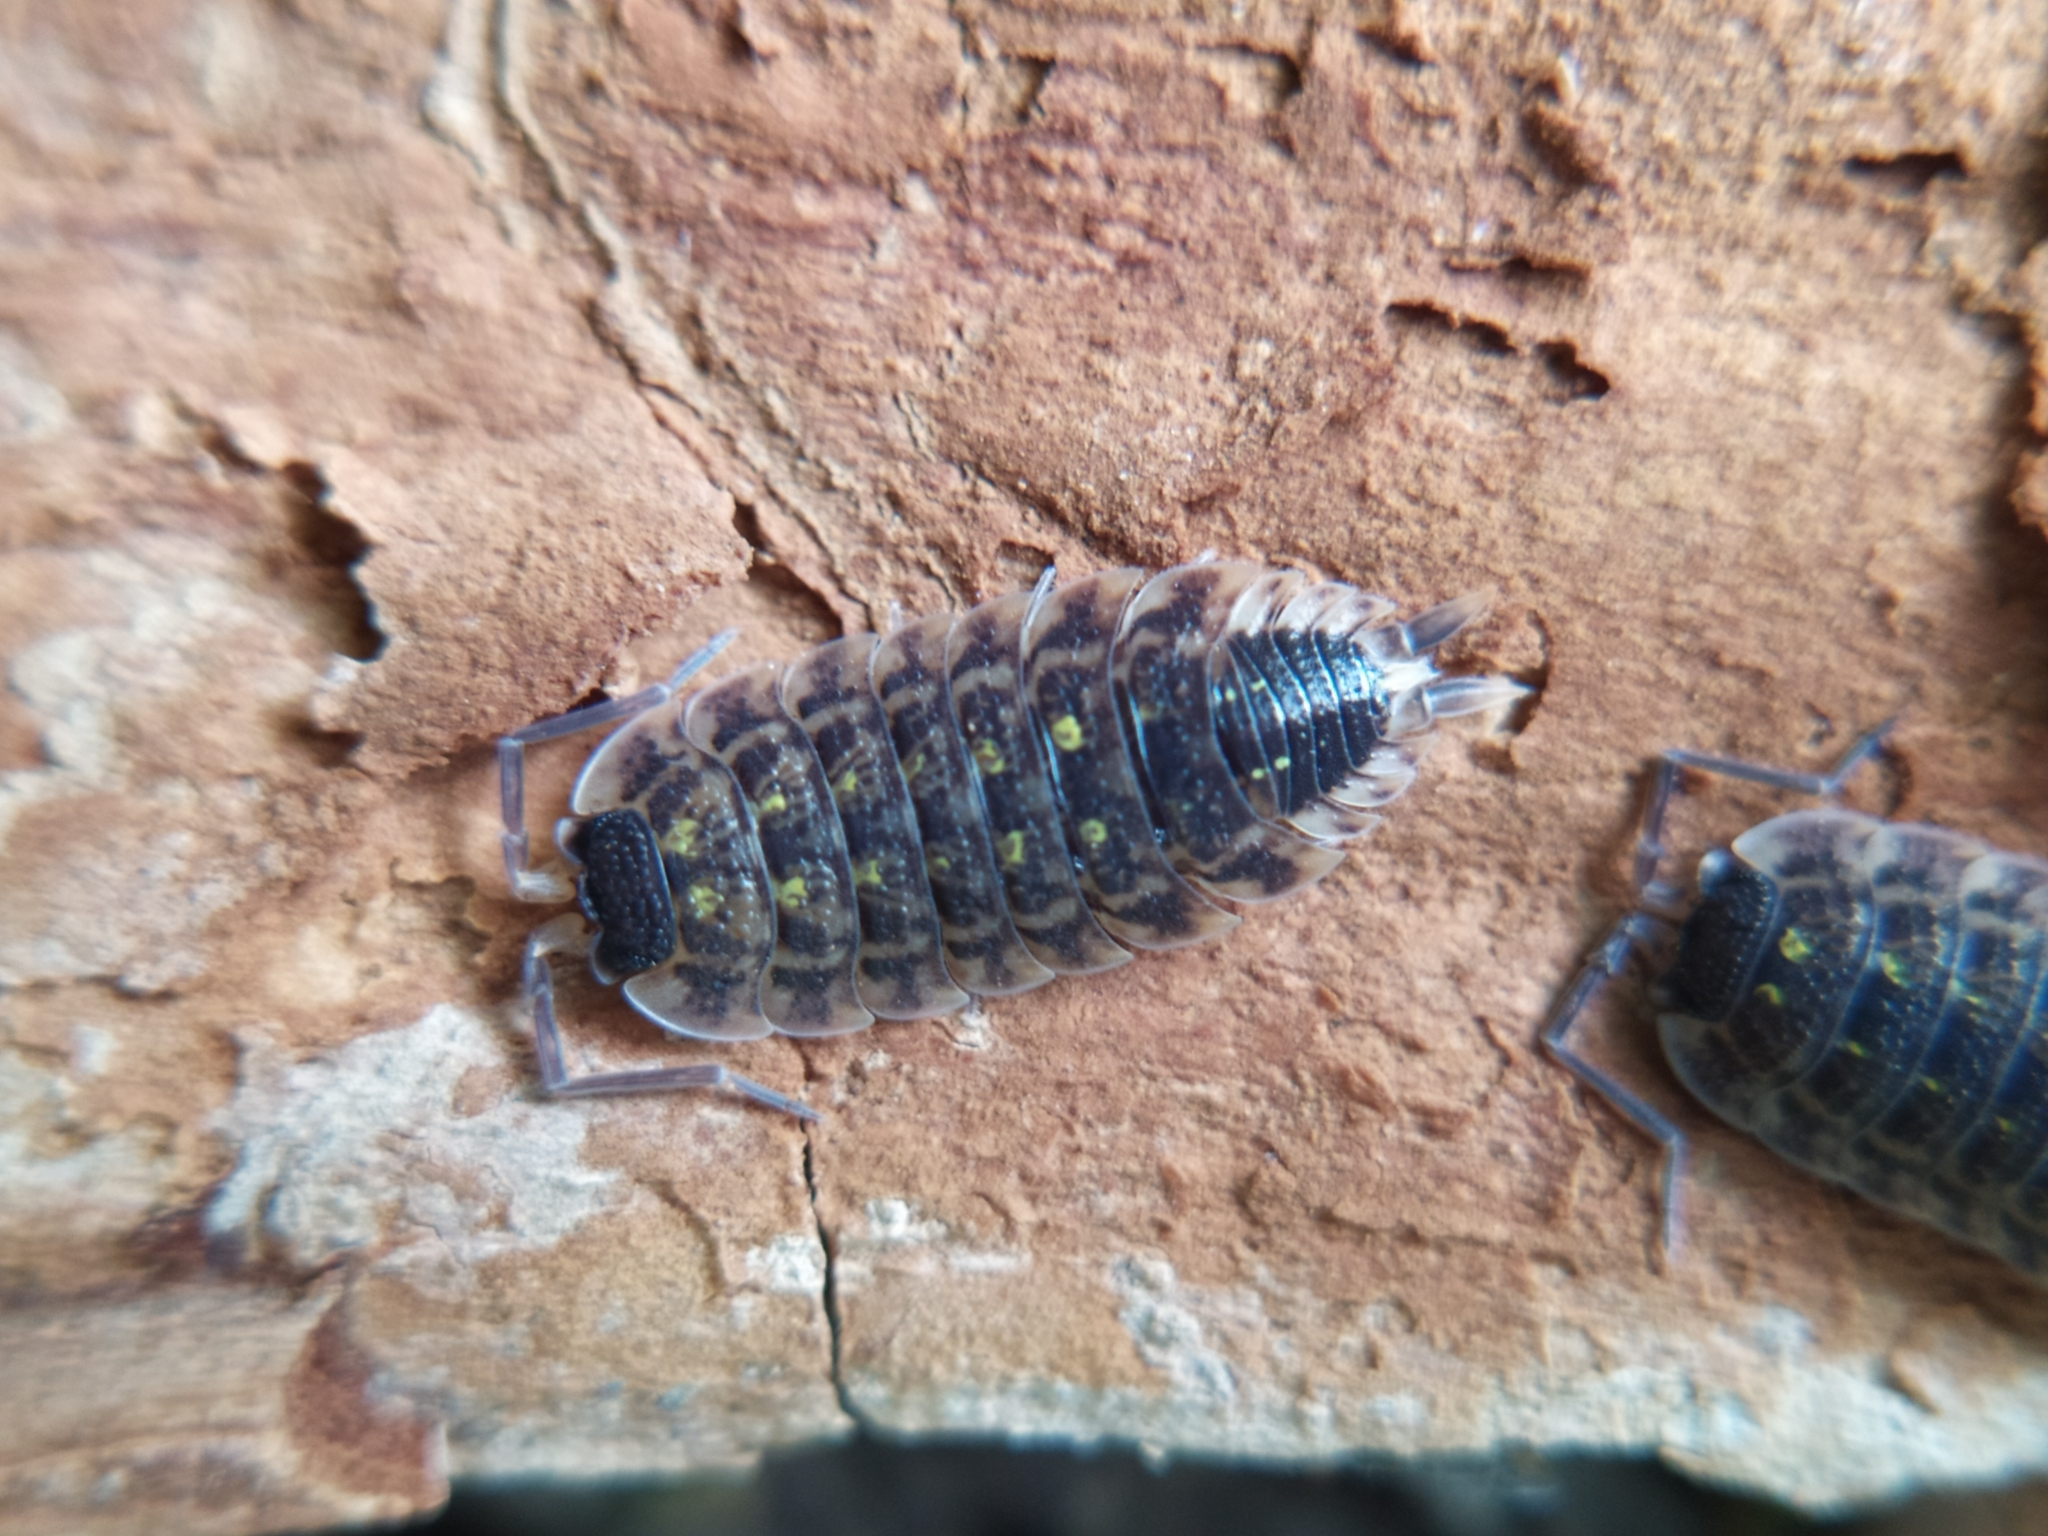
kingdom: Animalia
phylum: Arthropoda
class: Malacostraca
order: Isopoda
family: Porcellionidae
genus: Porcellio
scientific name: Porcellio spinicornis
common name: Painted woodlouse
